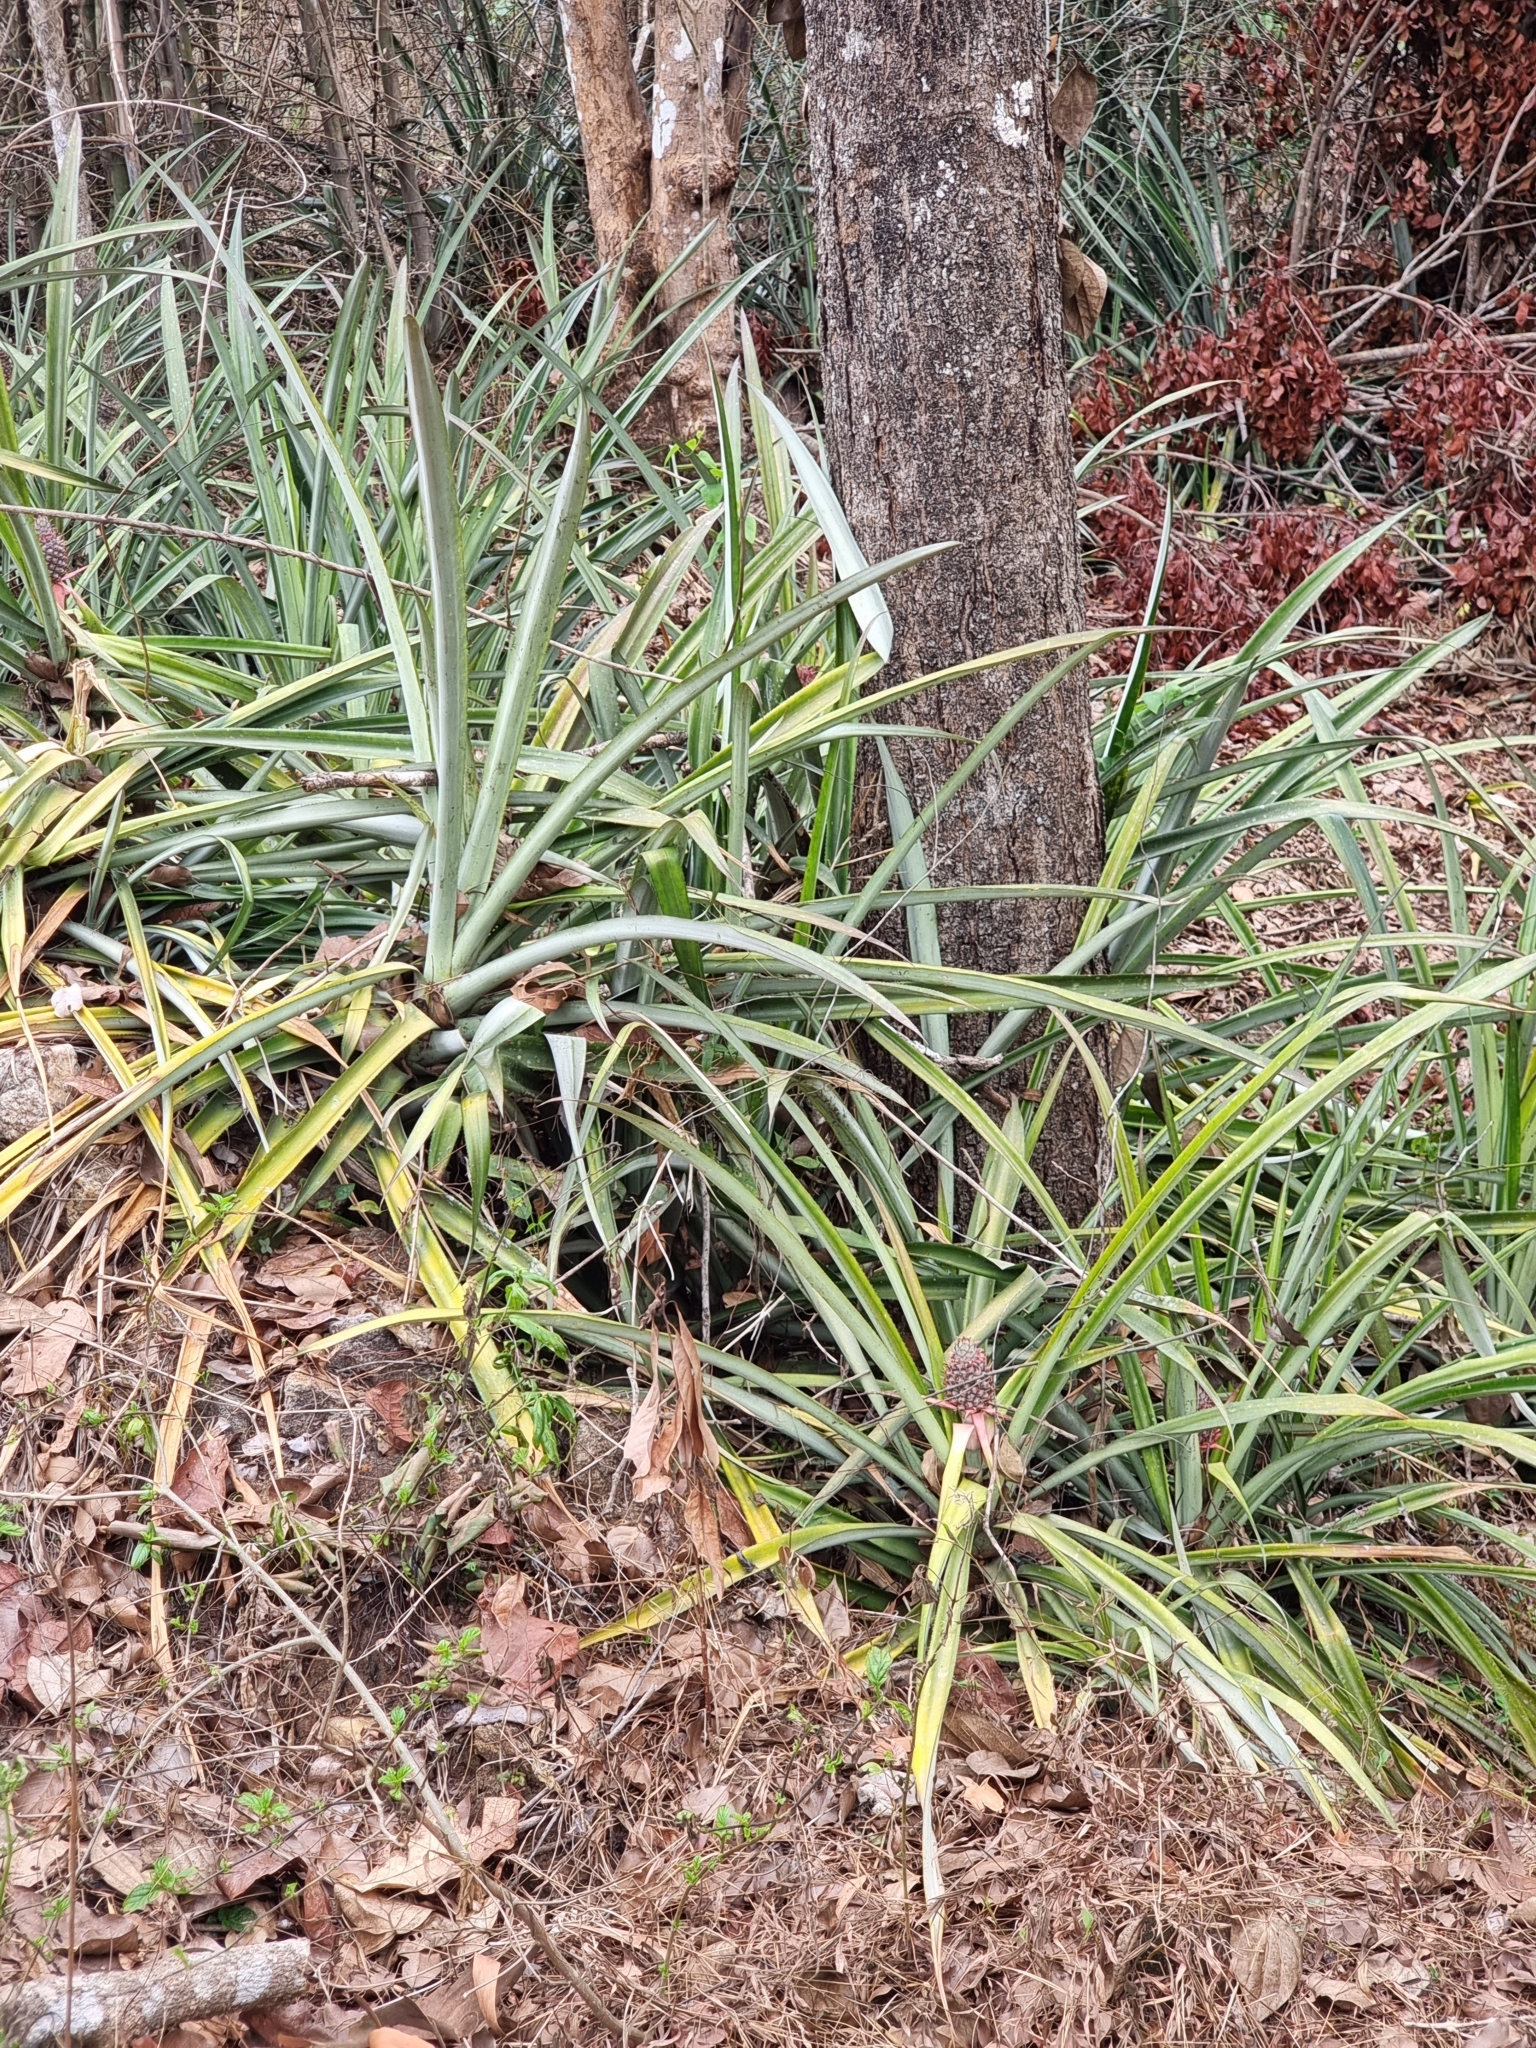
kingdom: Plantae
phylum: Tracheophyta
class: Liliopsida
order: Poales
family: Bromeliaceae
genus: Ananas
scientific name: Ananas comosus
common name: Pineapple
